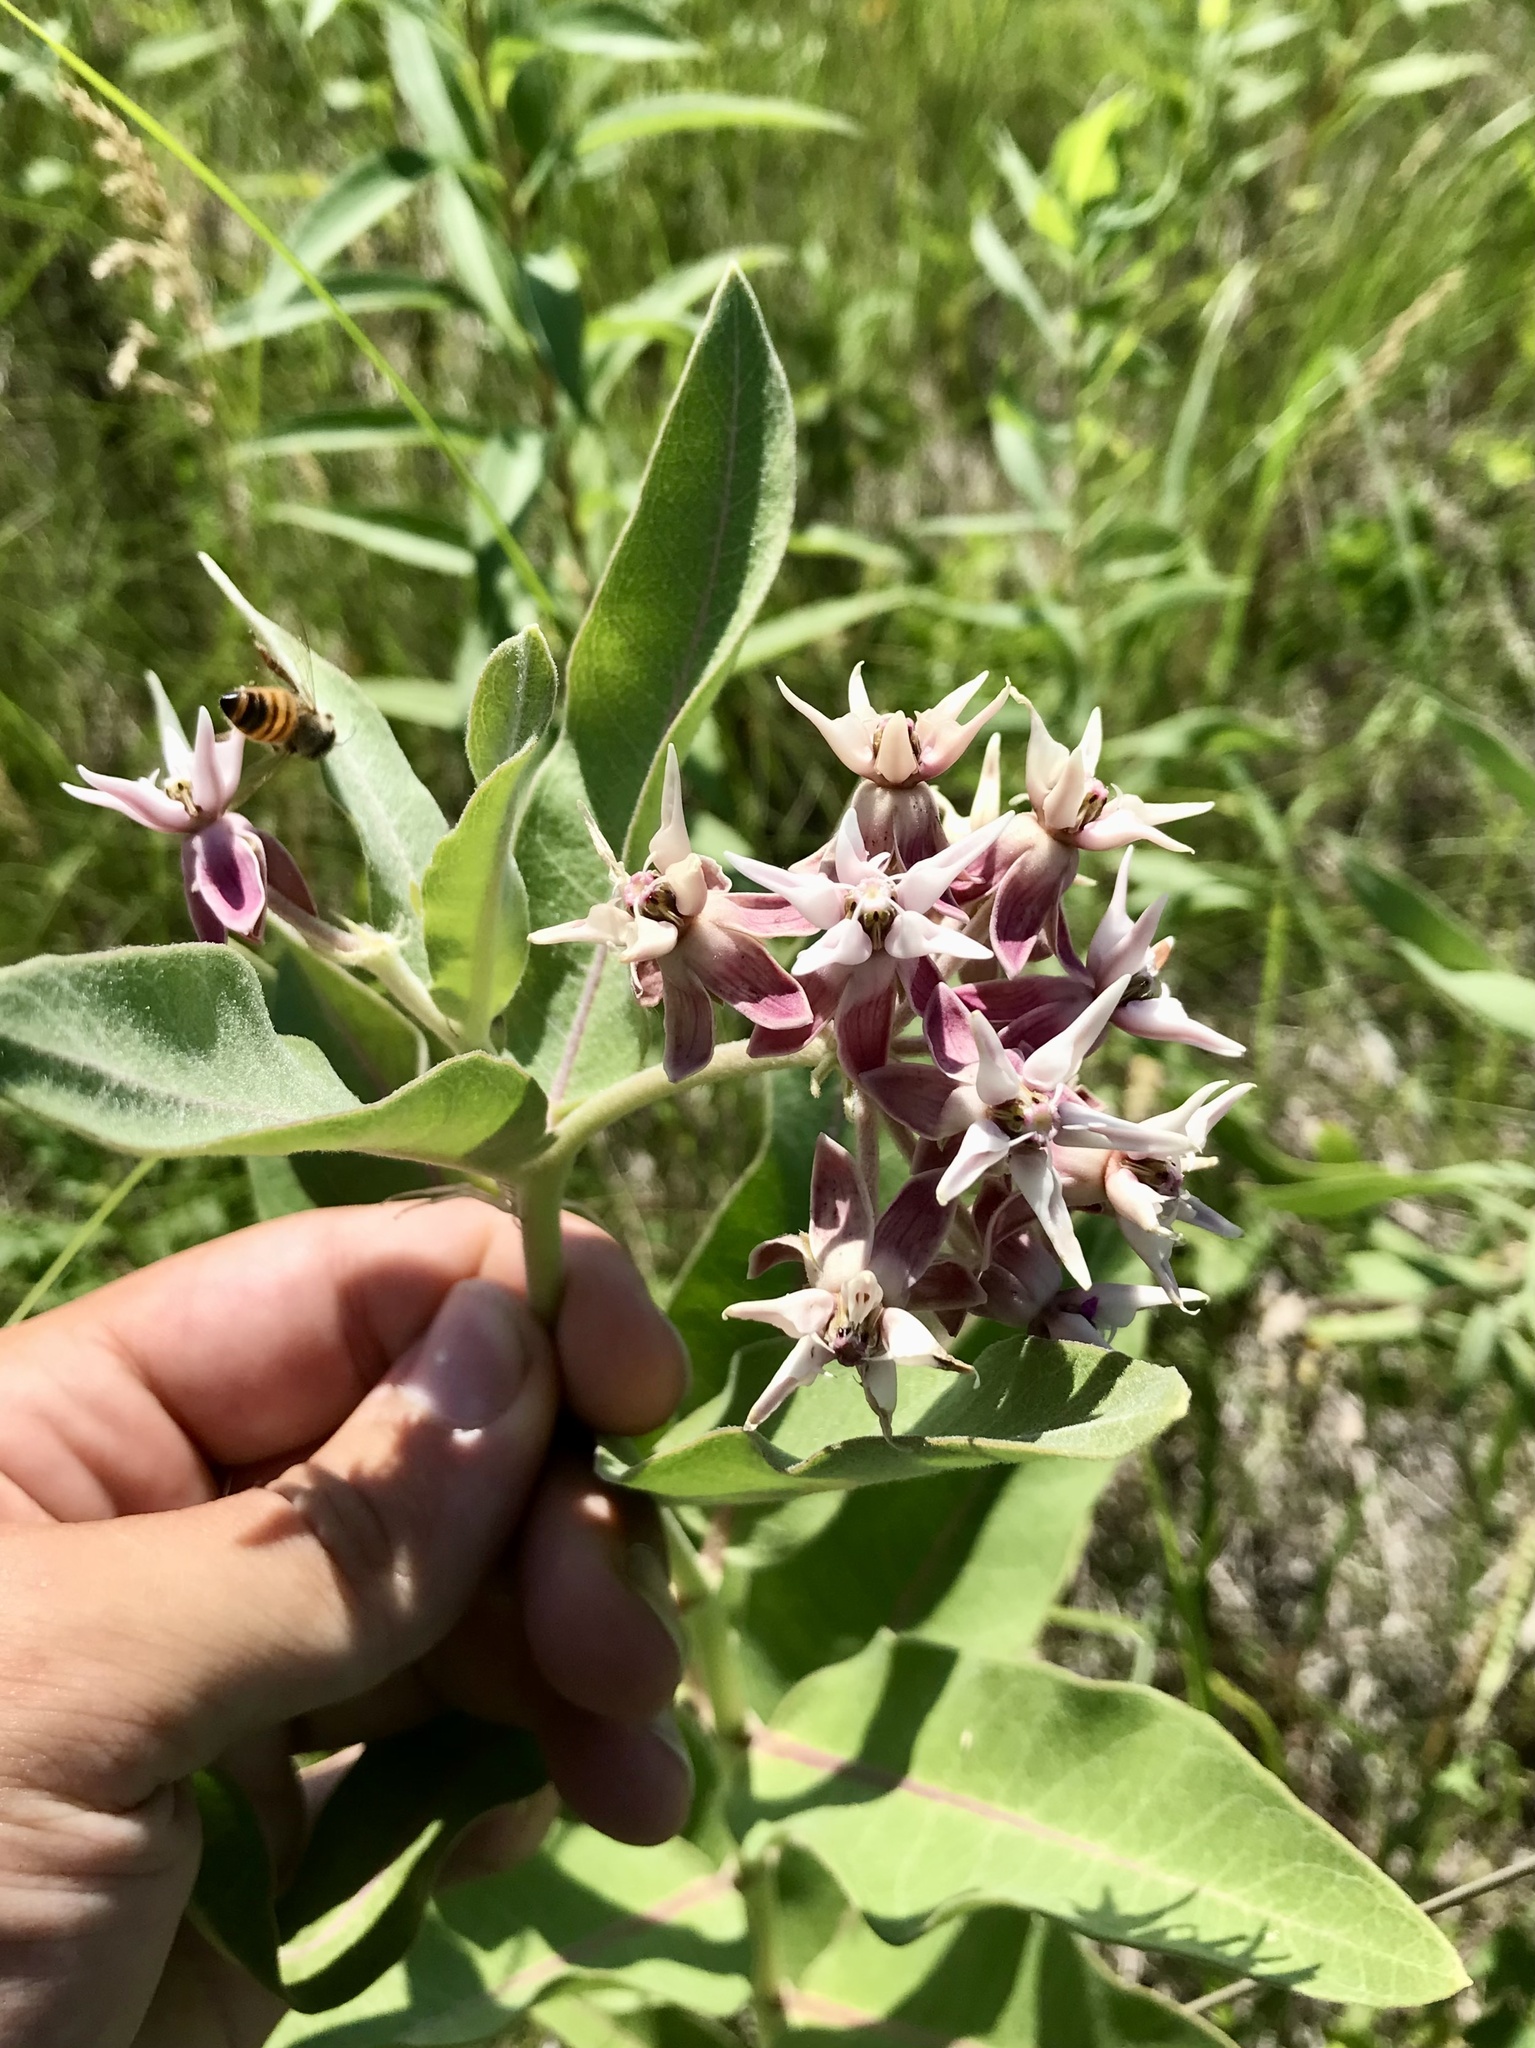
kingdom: Plantae
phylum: Tracheophyta
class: Magnoliopsida
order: Gentianales
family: Apocynaceae
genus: Asclepias
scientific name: Asclepias speciosa
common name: Showy milkweed
